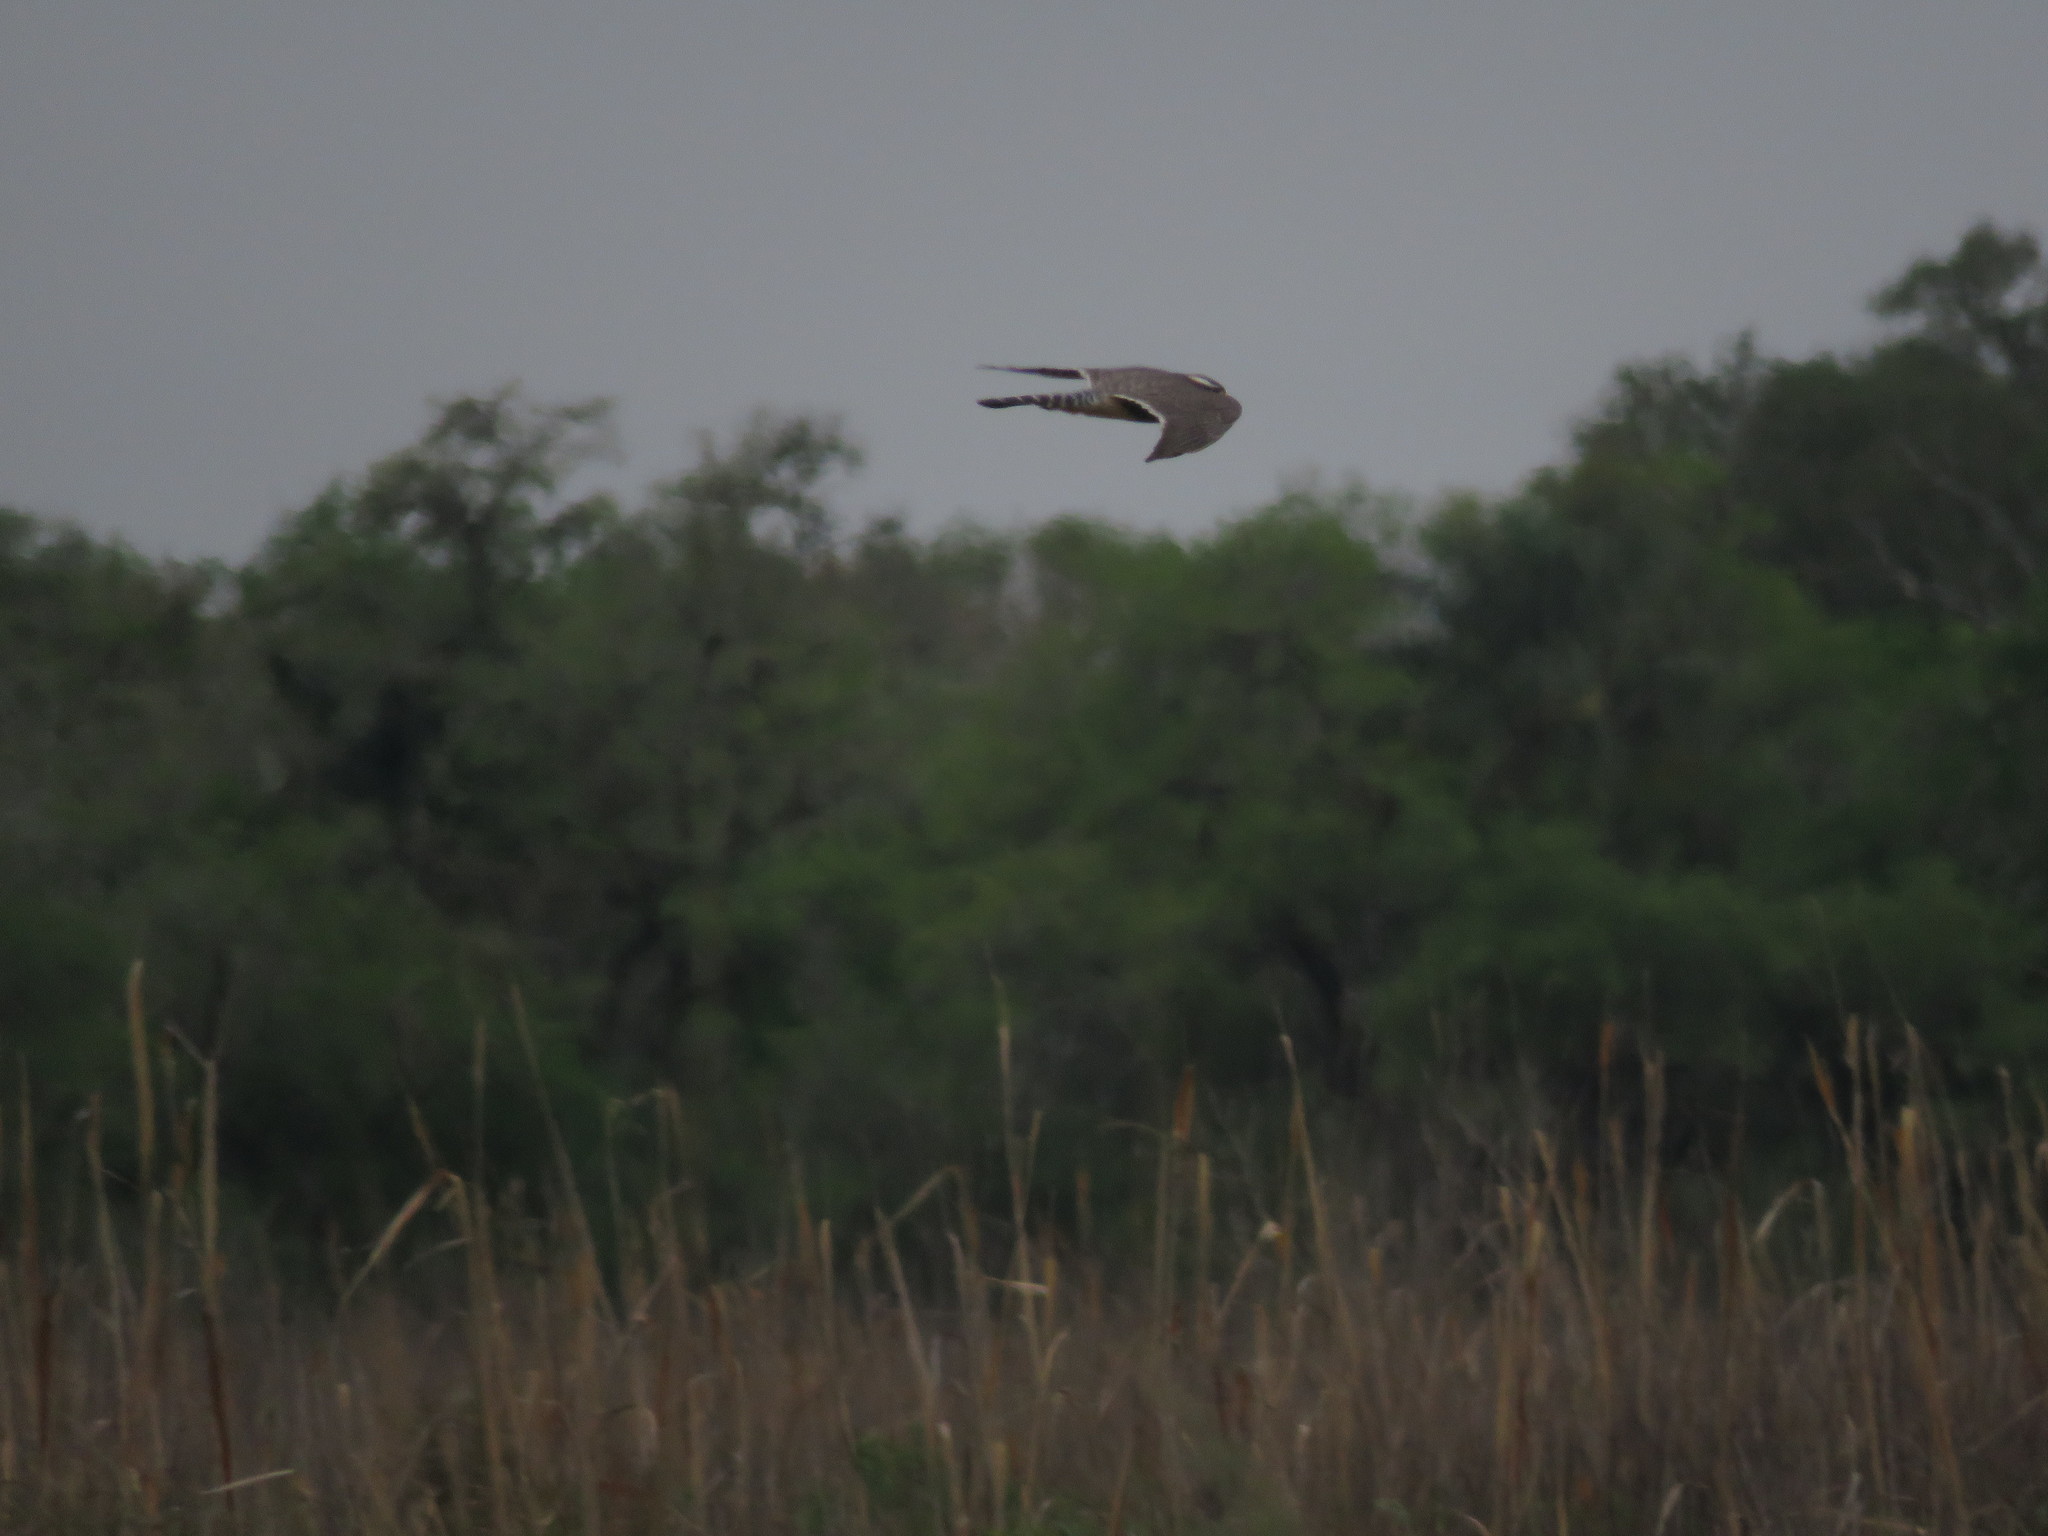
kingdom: Animalia
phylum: Chordata
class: Aves
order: Falconiformes
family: Falconidae
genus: Falco
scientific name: Falco femoralis
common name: Aplomado falcon
